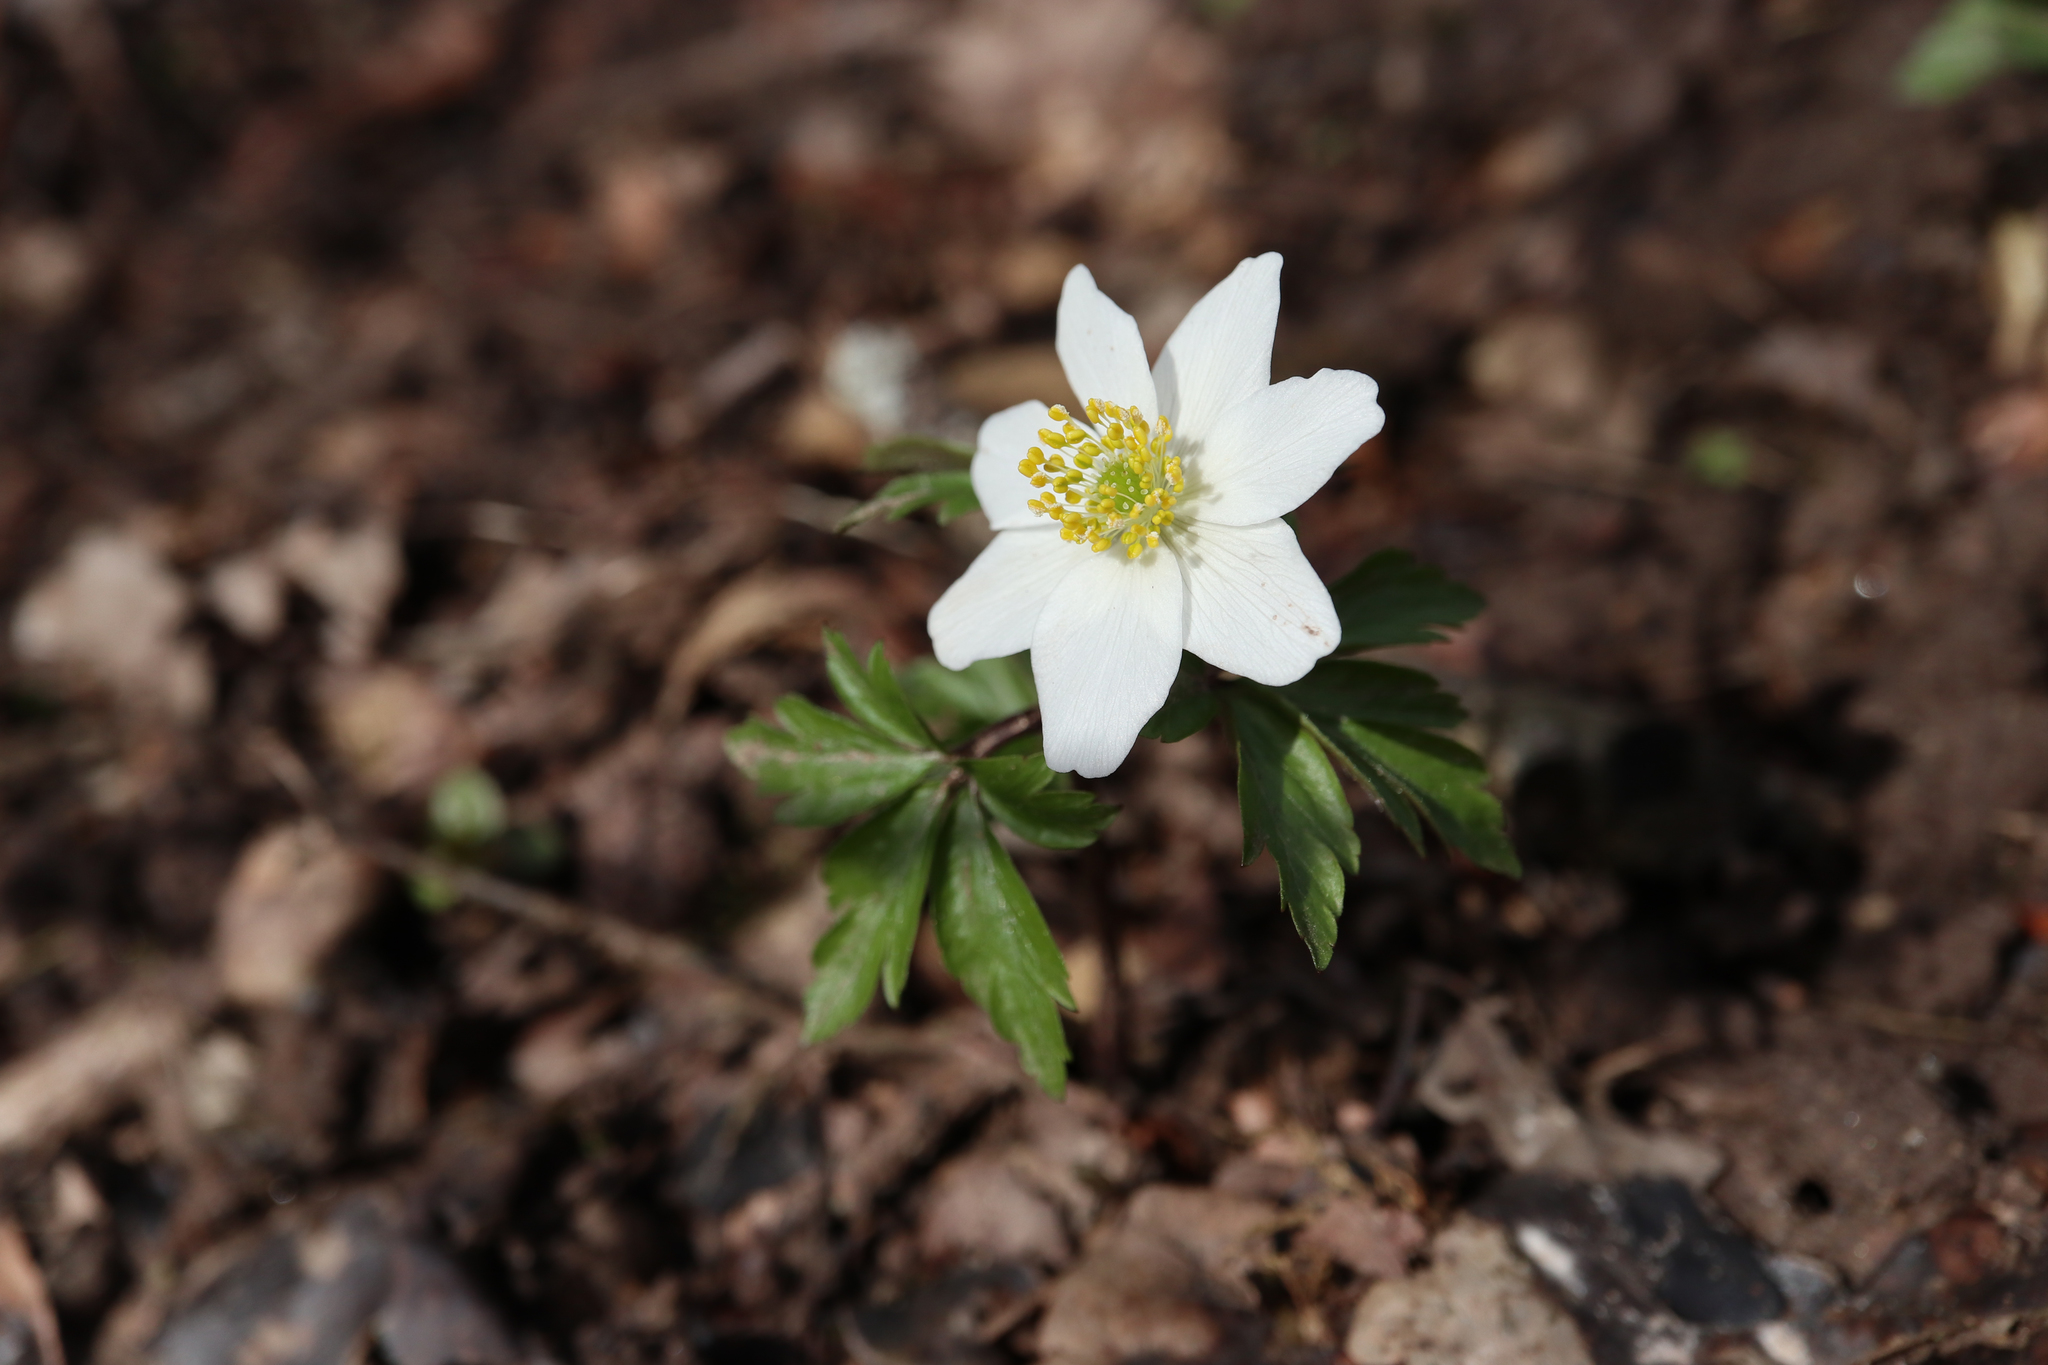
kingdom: Plantae
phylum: Tracheophyta
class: Magnoliopsida
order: Ranunculales
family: Ranunculaceae
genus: Anemone
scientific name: Anemone nemorosa
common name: Wood anemone
